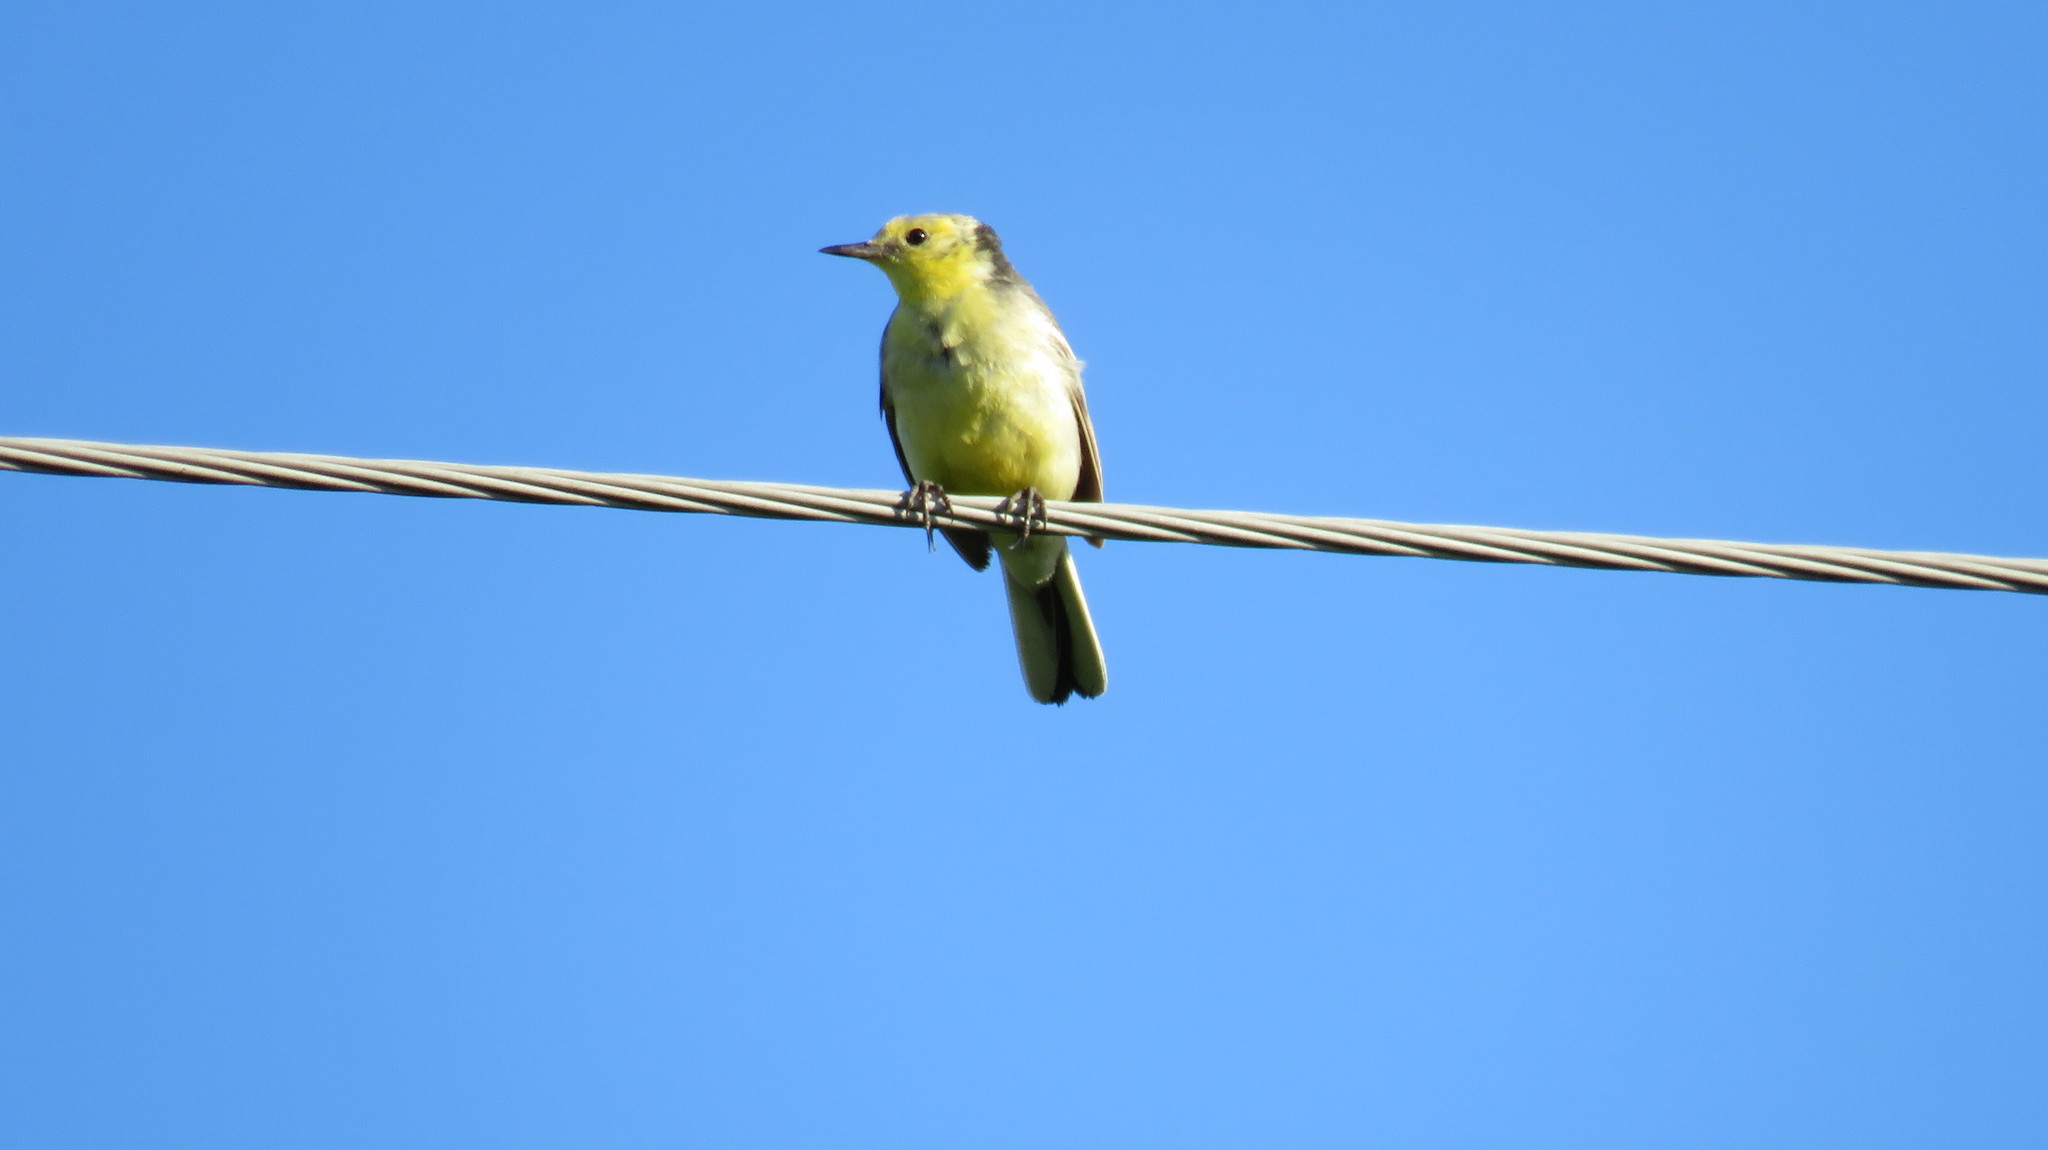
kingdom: Animalia
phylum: Chordata
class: Aves
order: Passeriformes
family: Motacillidae
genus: Motacilla
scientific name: Motacilla citreola
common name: Citrine wagtail
